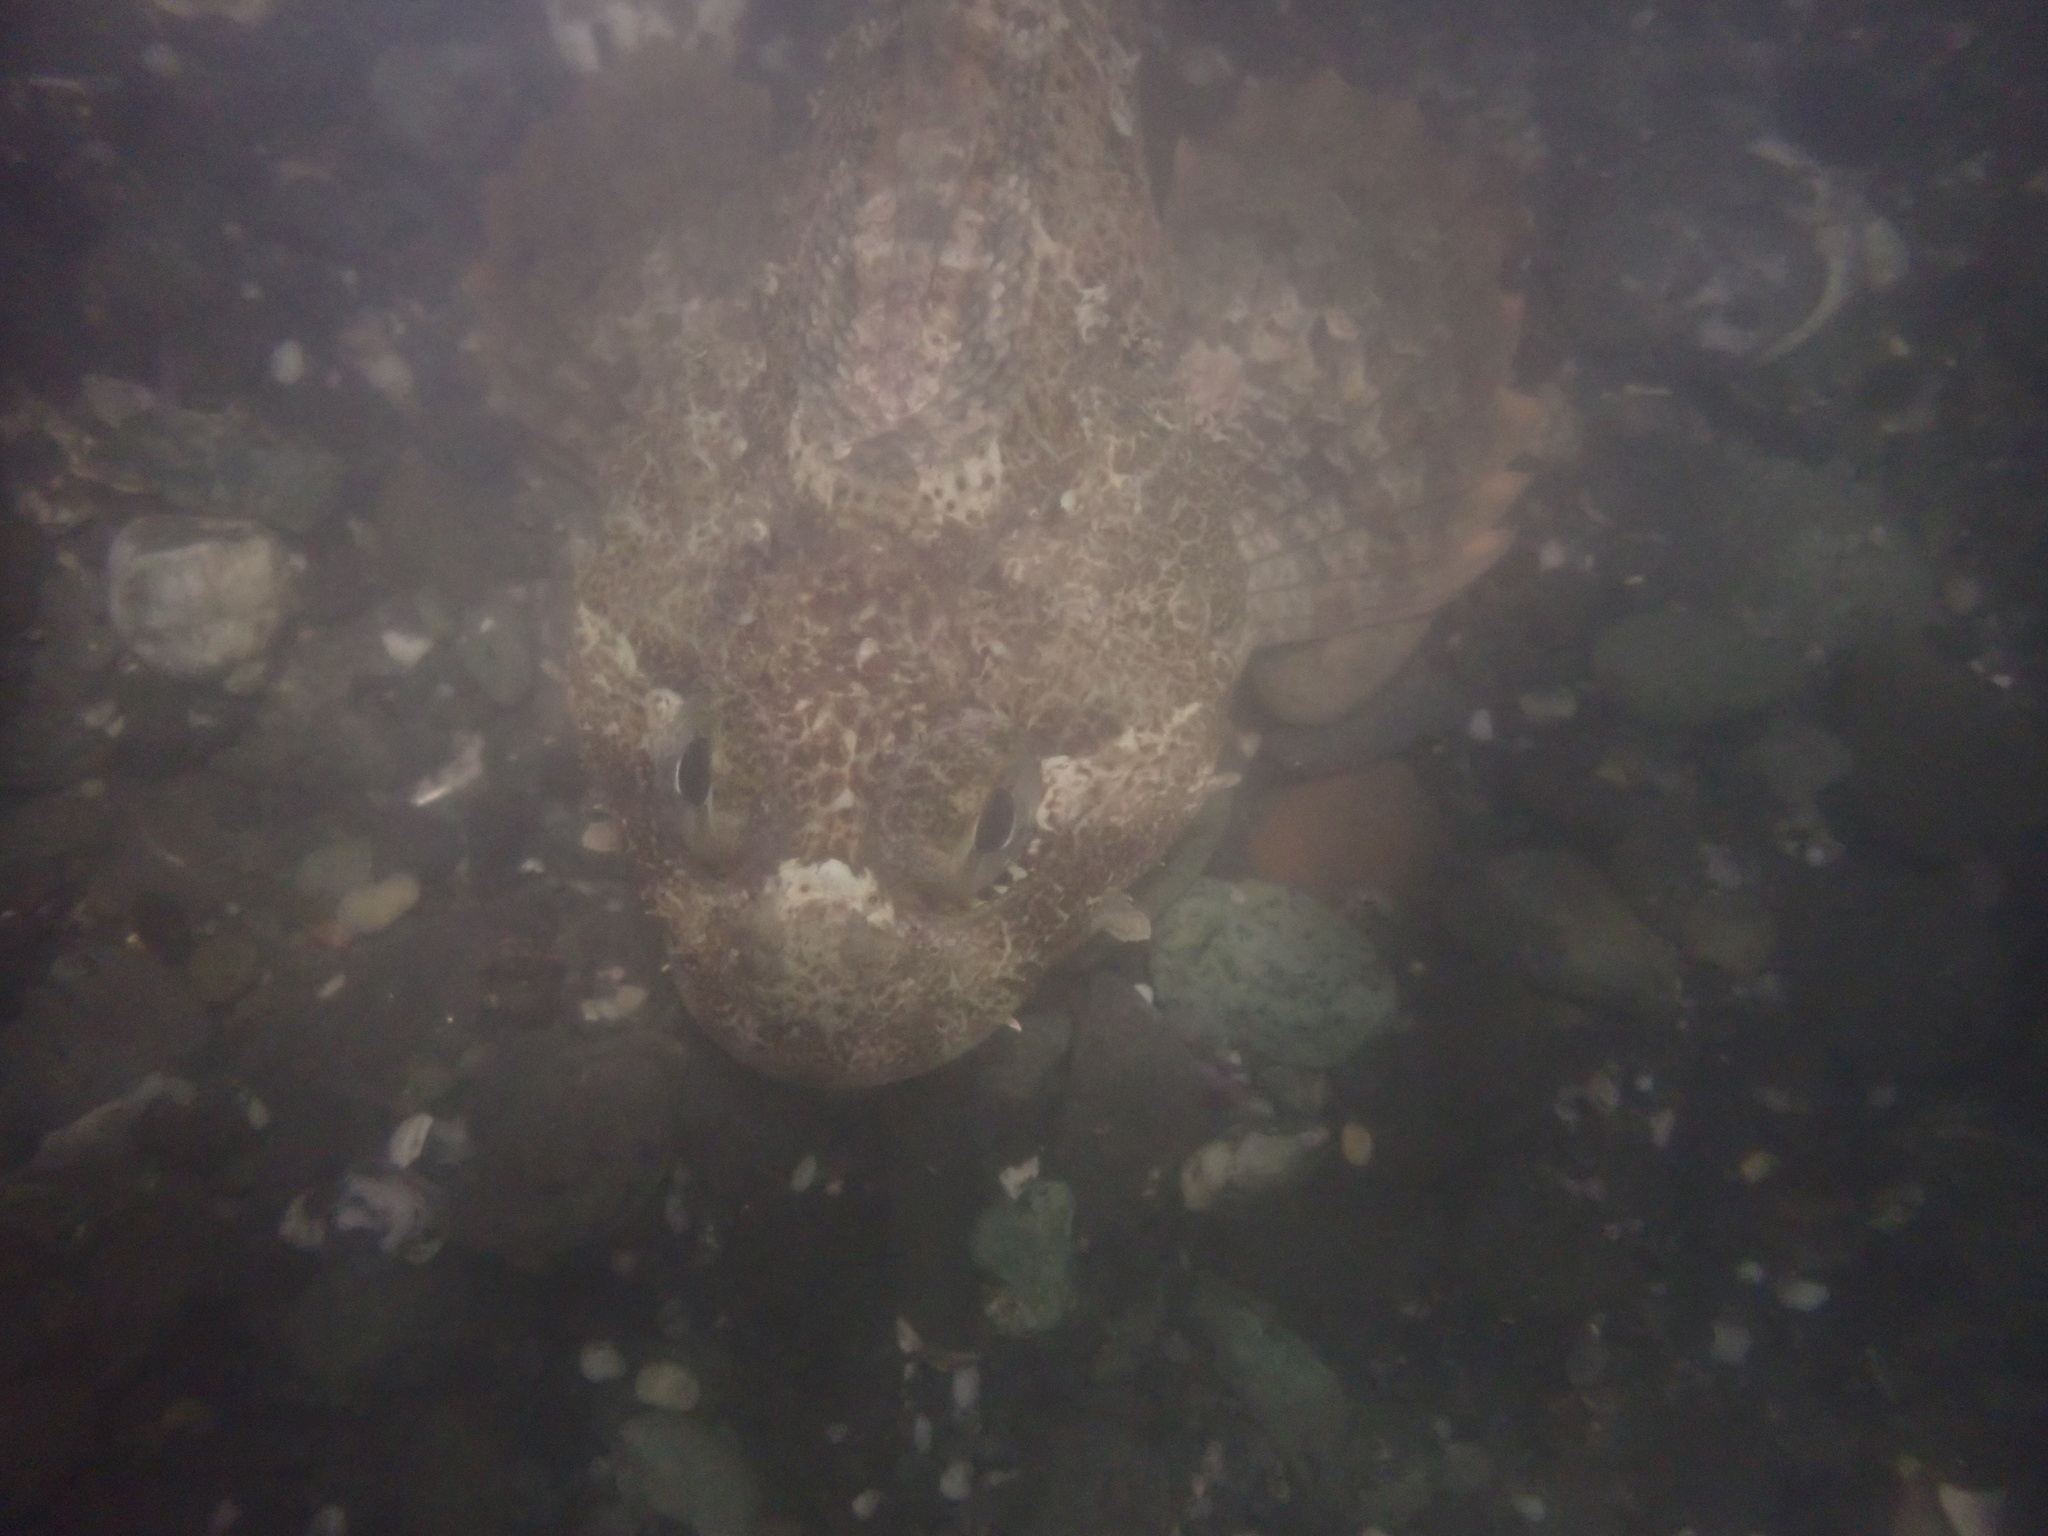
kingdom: Animalia
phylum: Chordata
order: Scorpaeniformes
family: Cottidae
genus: Hemilepidotus
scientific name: Hemilepidotus hemilepidotus
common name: Red irish lord
